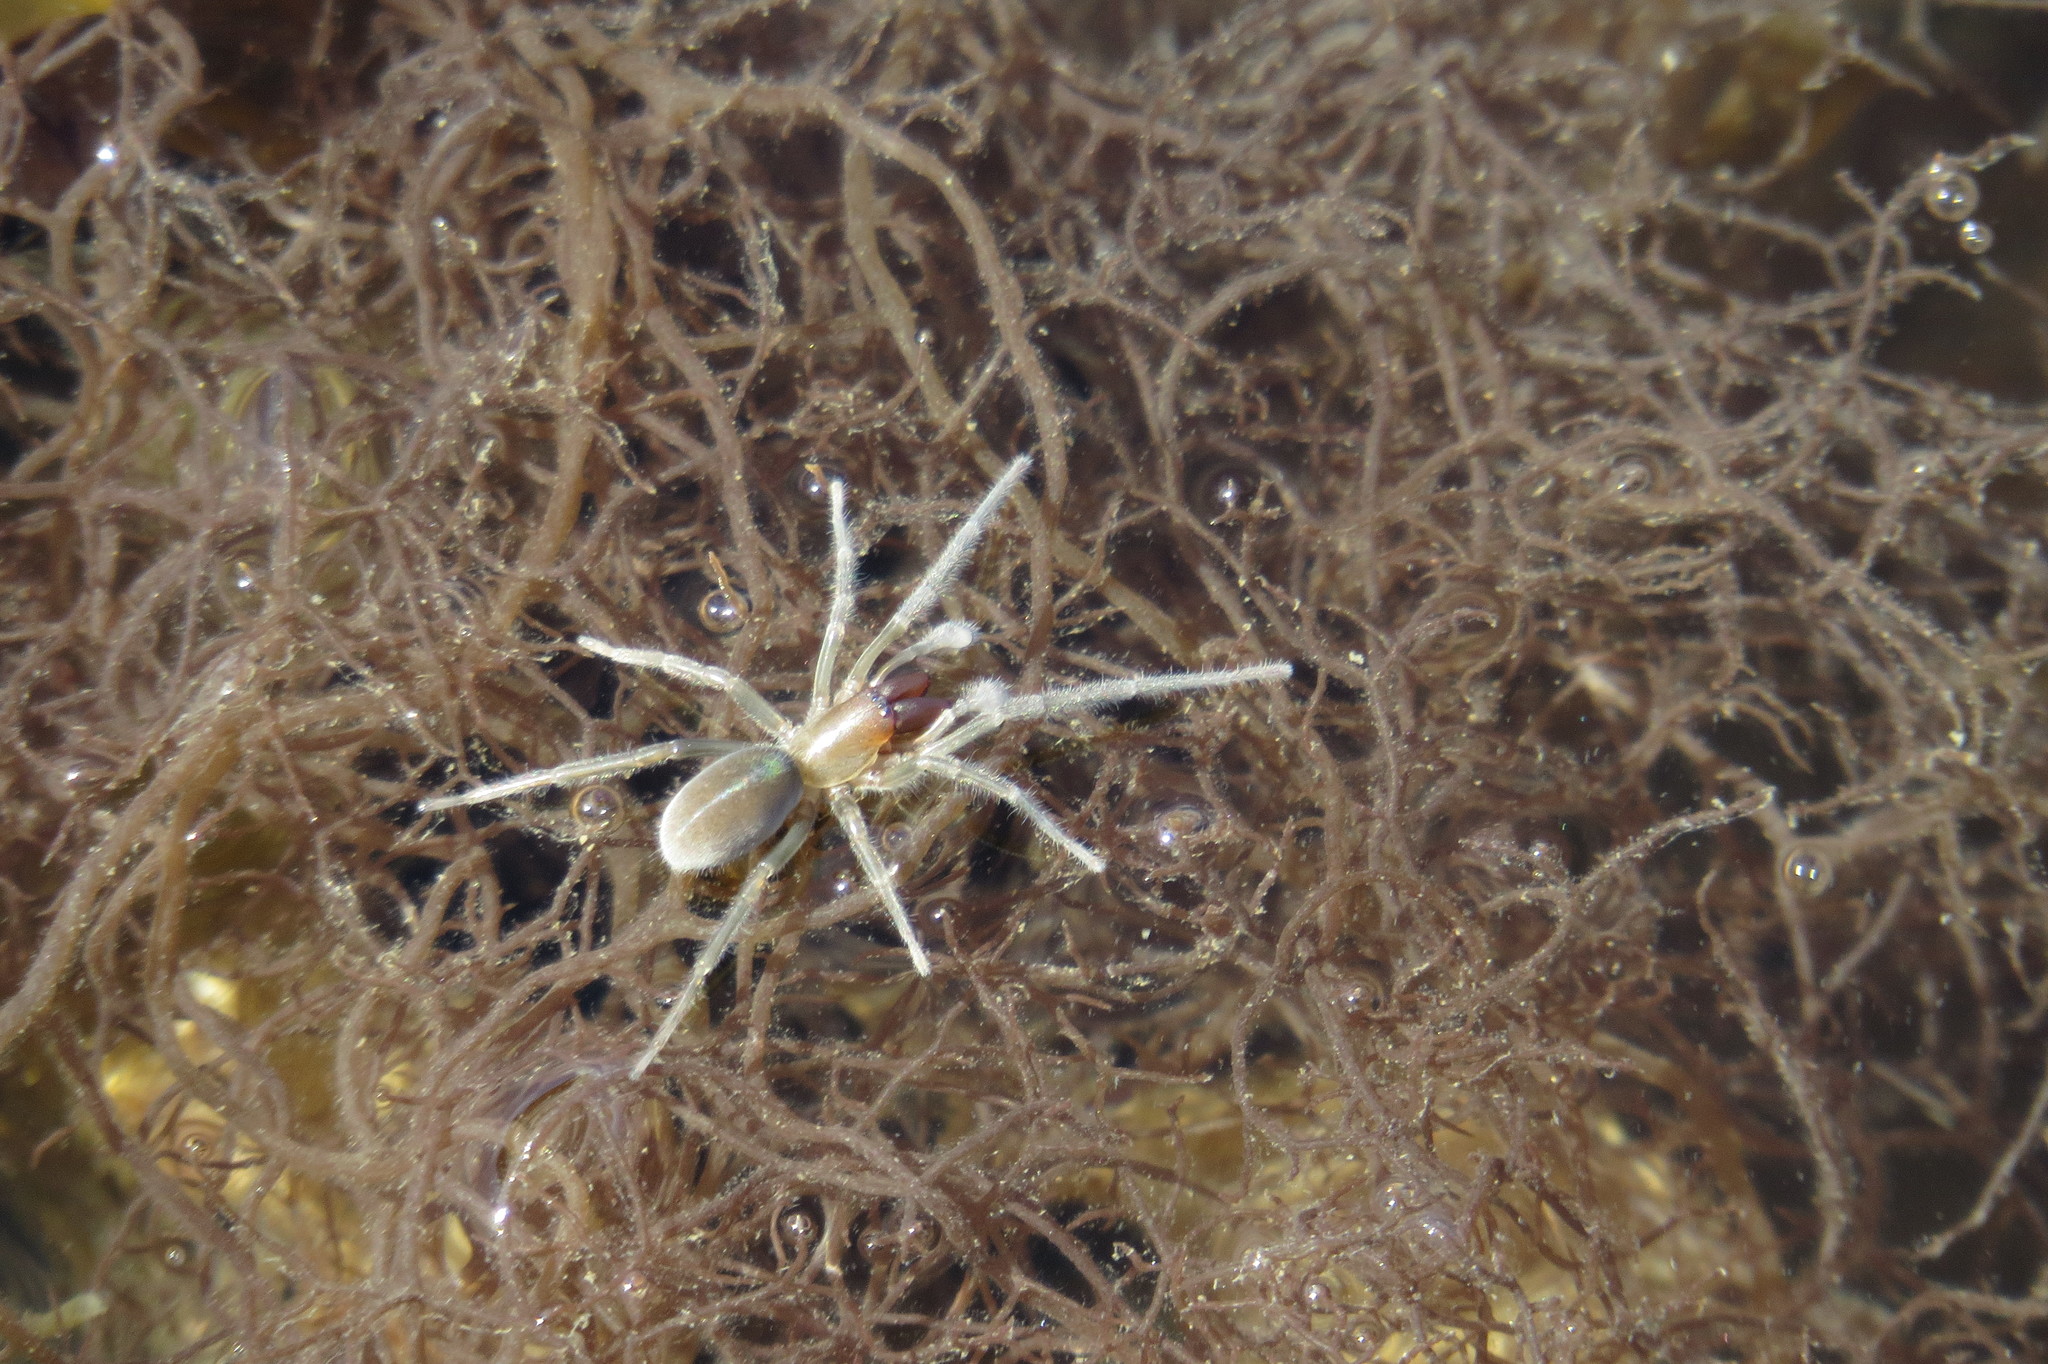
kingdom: Animalia
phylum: Arthropoda
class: Arachnida
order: Araneae
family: Desidae
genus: Desis
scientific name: Desis bobmarleyi
